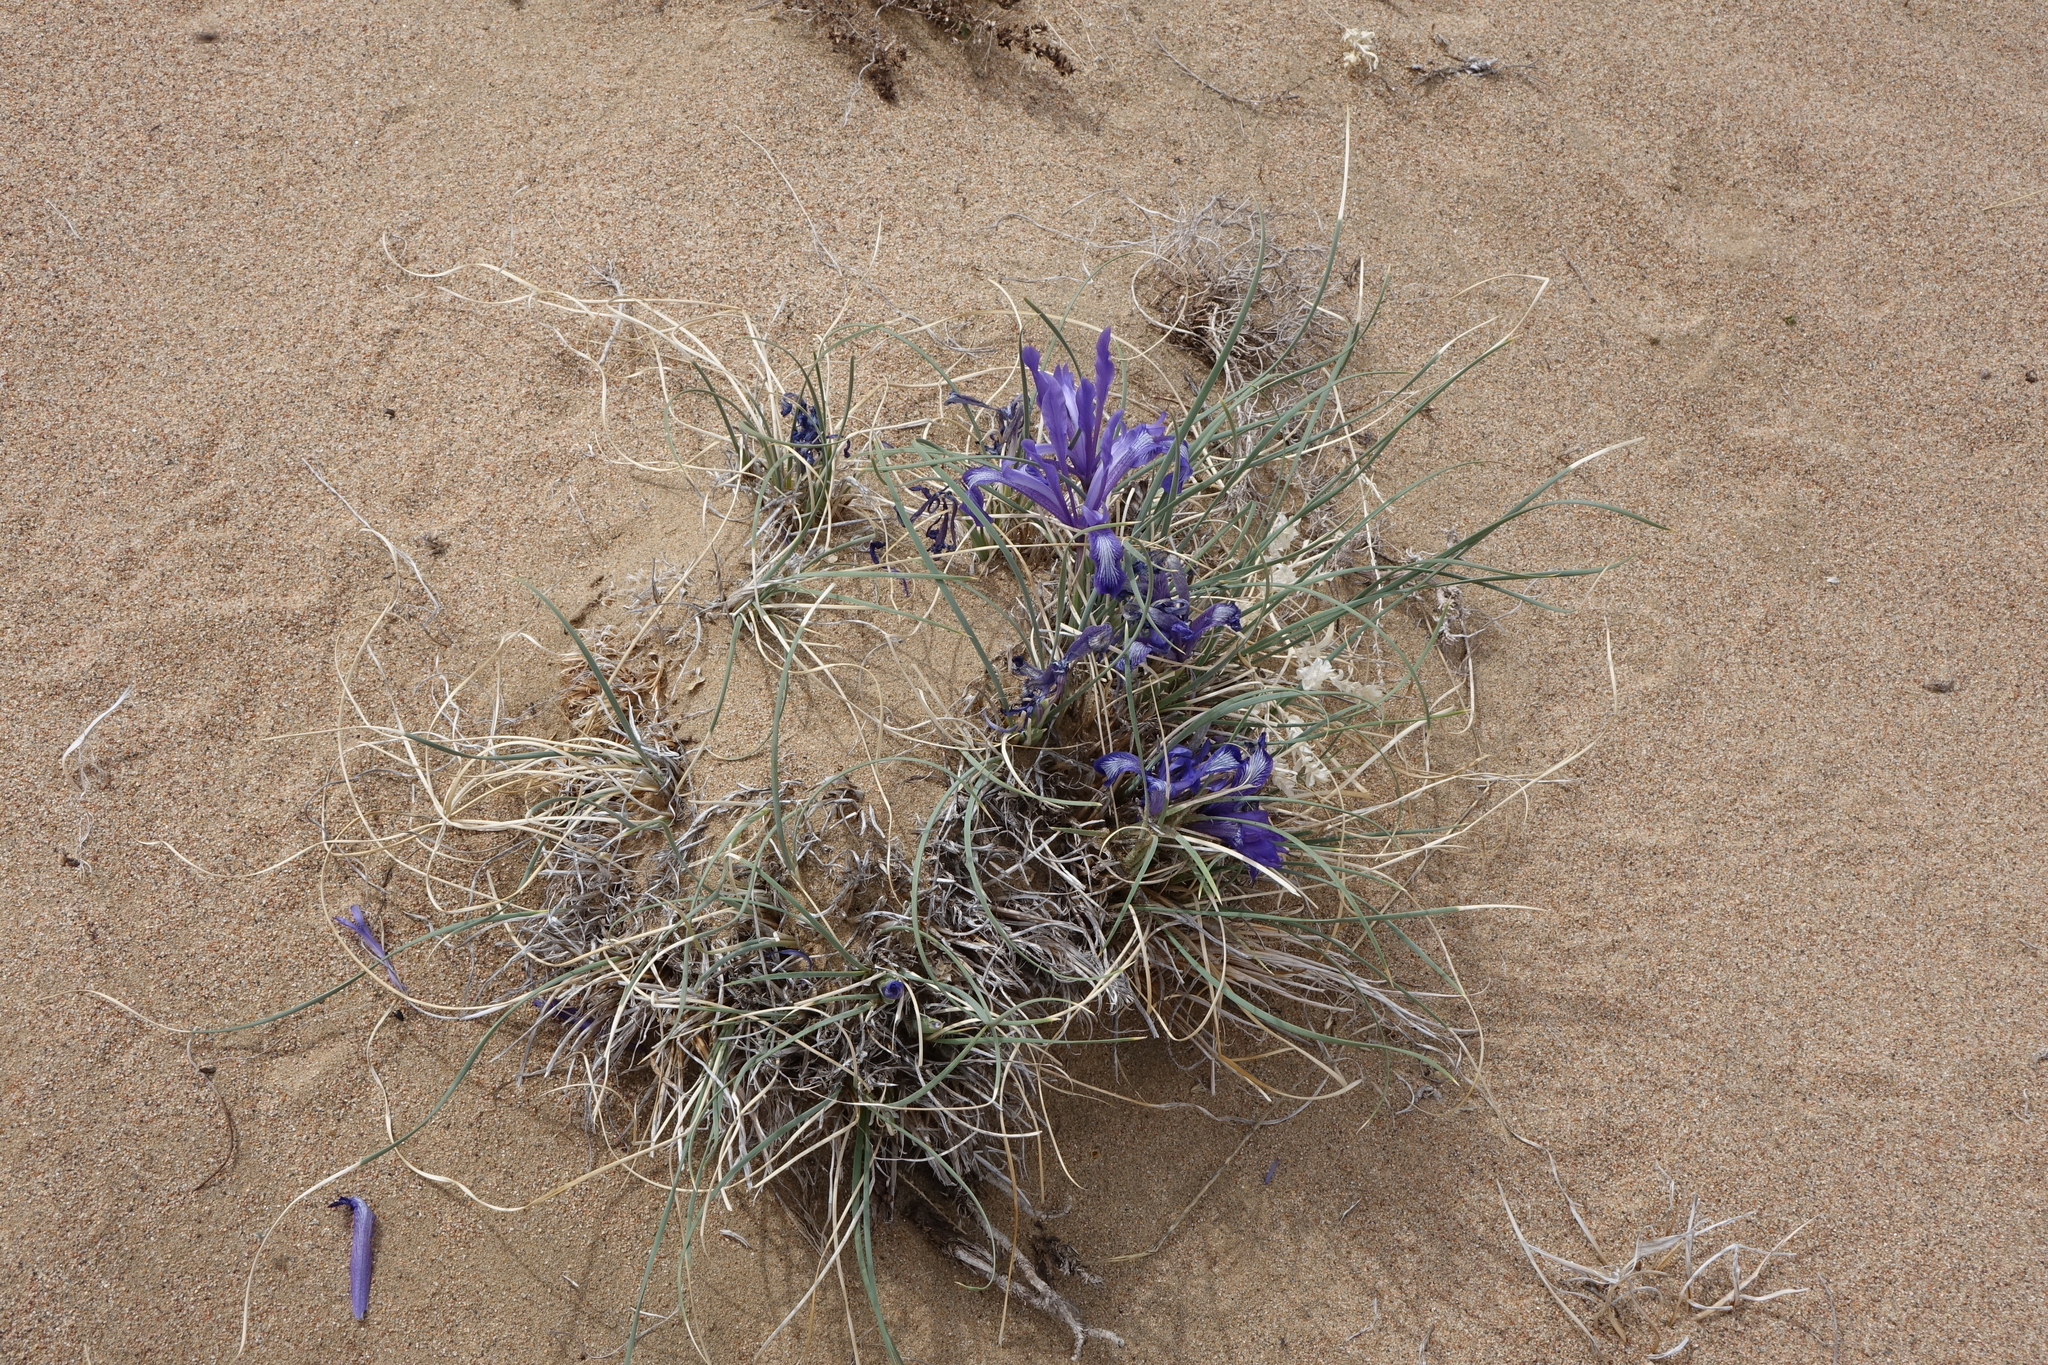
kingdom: Plantae
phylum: Tracheophyta
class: Liliopsida
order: Asparagales
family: Iridaceae
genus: Iris
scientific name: Iris tenuifolia
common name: Slender-leaf iris
